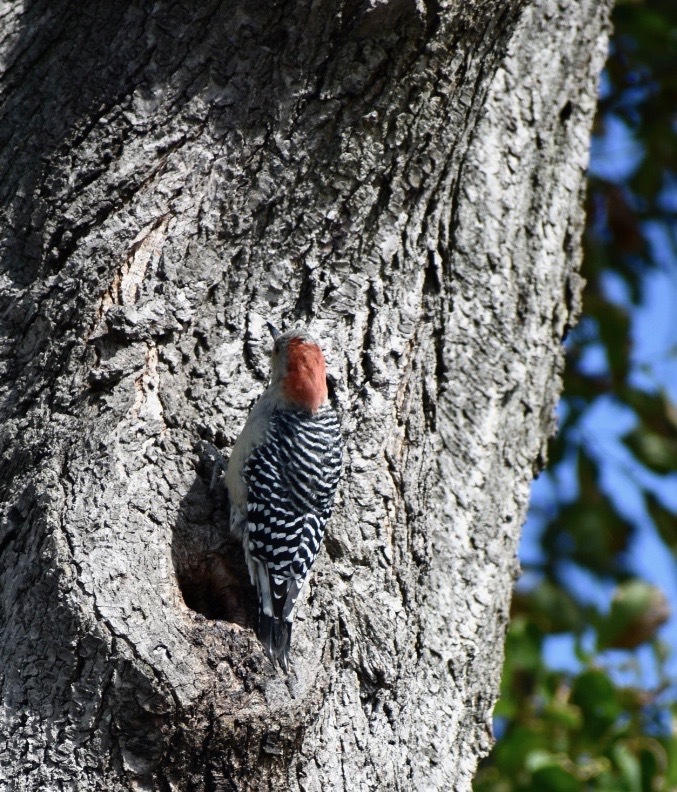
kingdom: Animalia
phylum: Chordata
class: Aves
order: Piciformes
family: Picidae
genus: Melanerpes
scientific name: Melanerpes carolinus
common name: Red-bellied woodpecker
